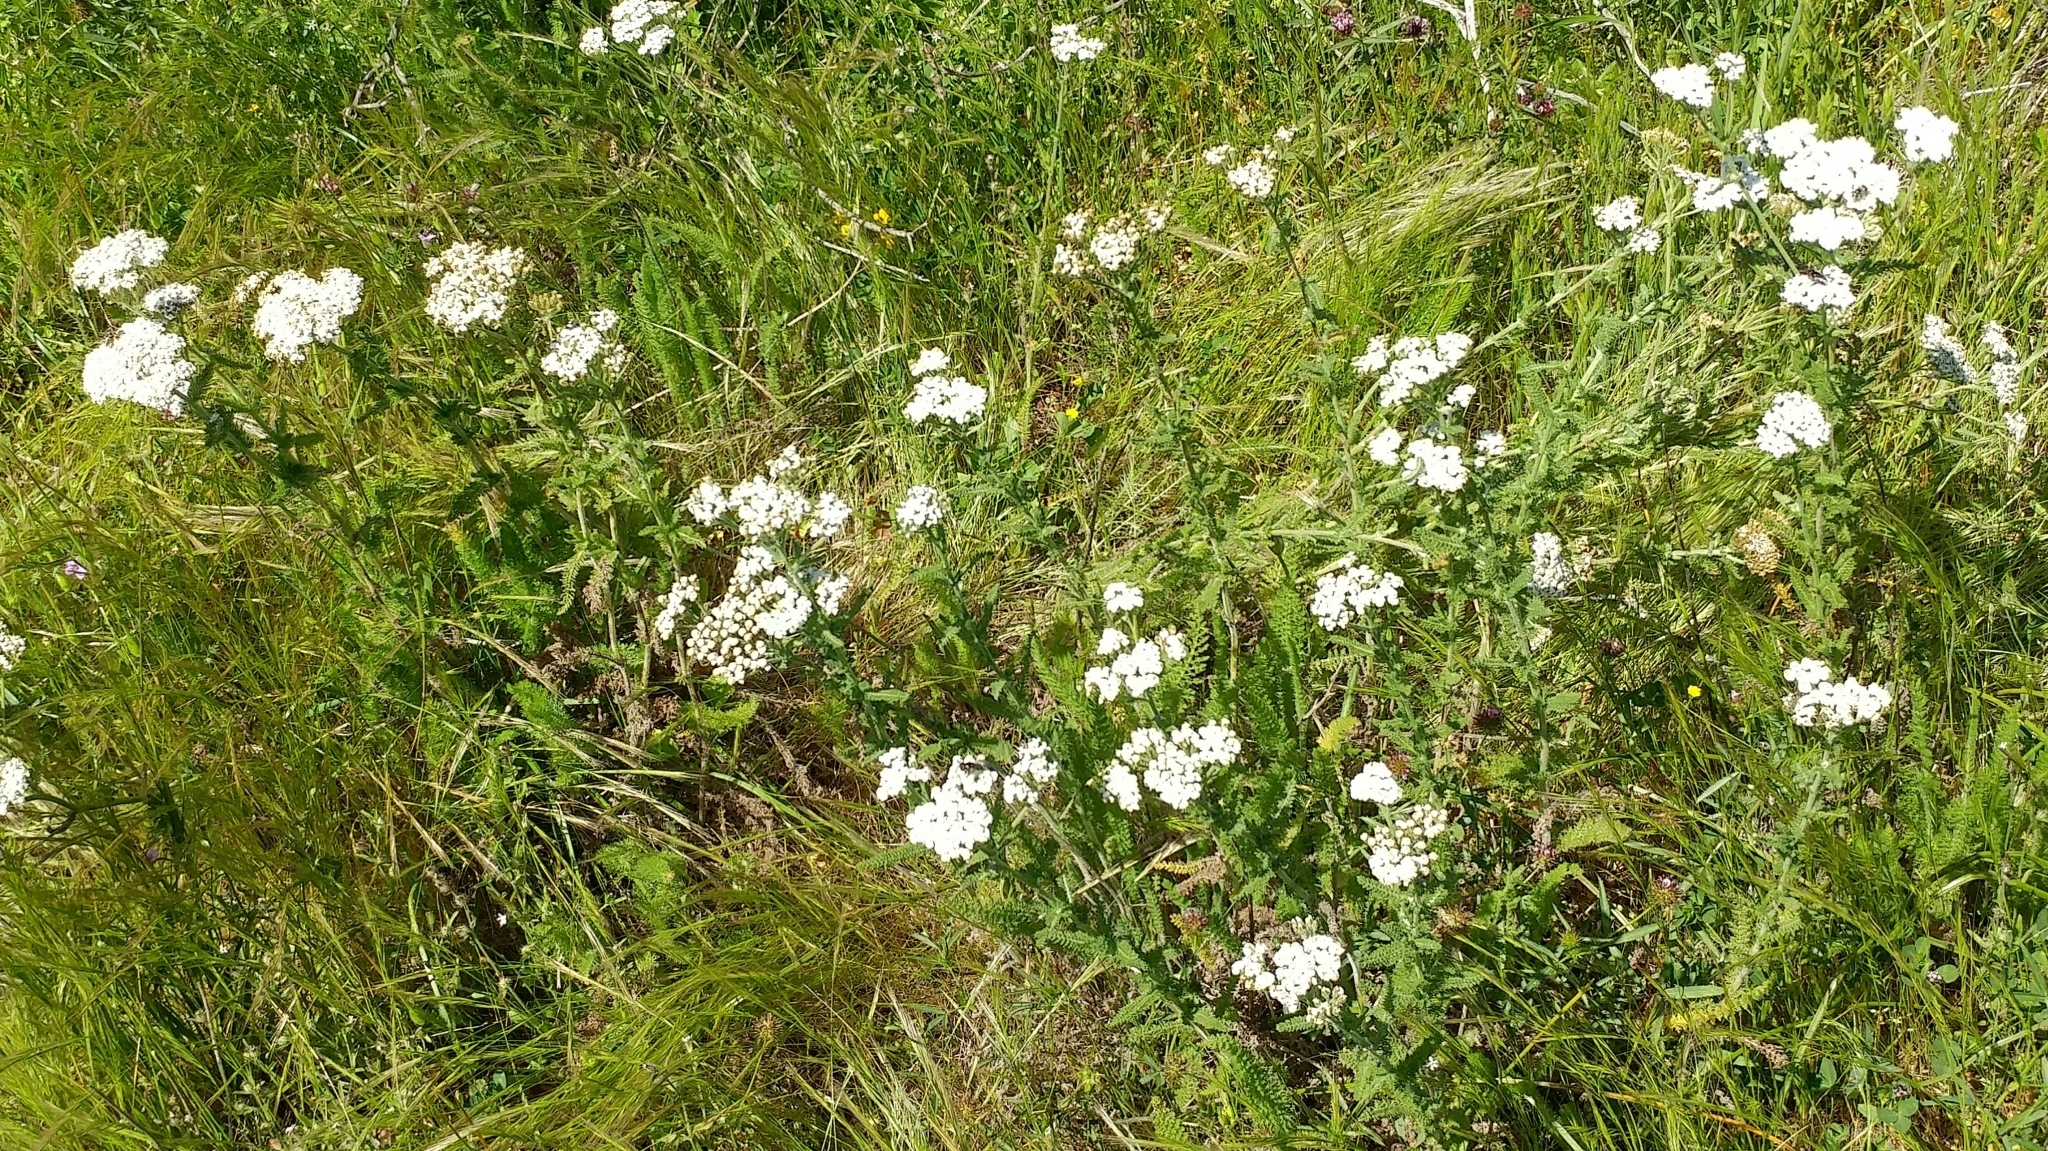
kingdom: Plantae
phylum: Tracheophyta
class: Magnoliopsida
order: Asterales
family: Asteraceae
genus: Achillea
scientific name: Achillea millefolium
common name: Yarrow
